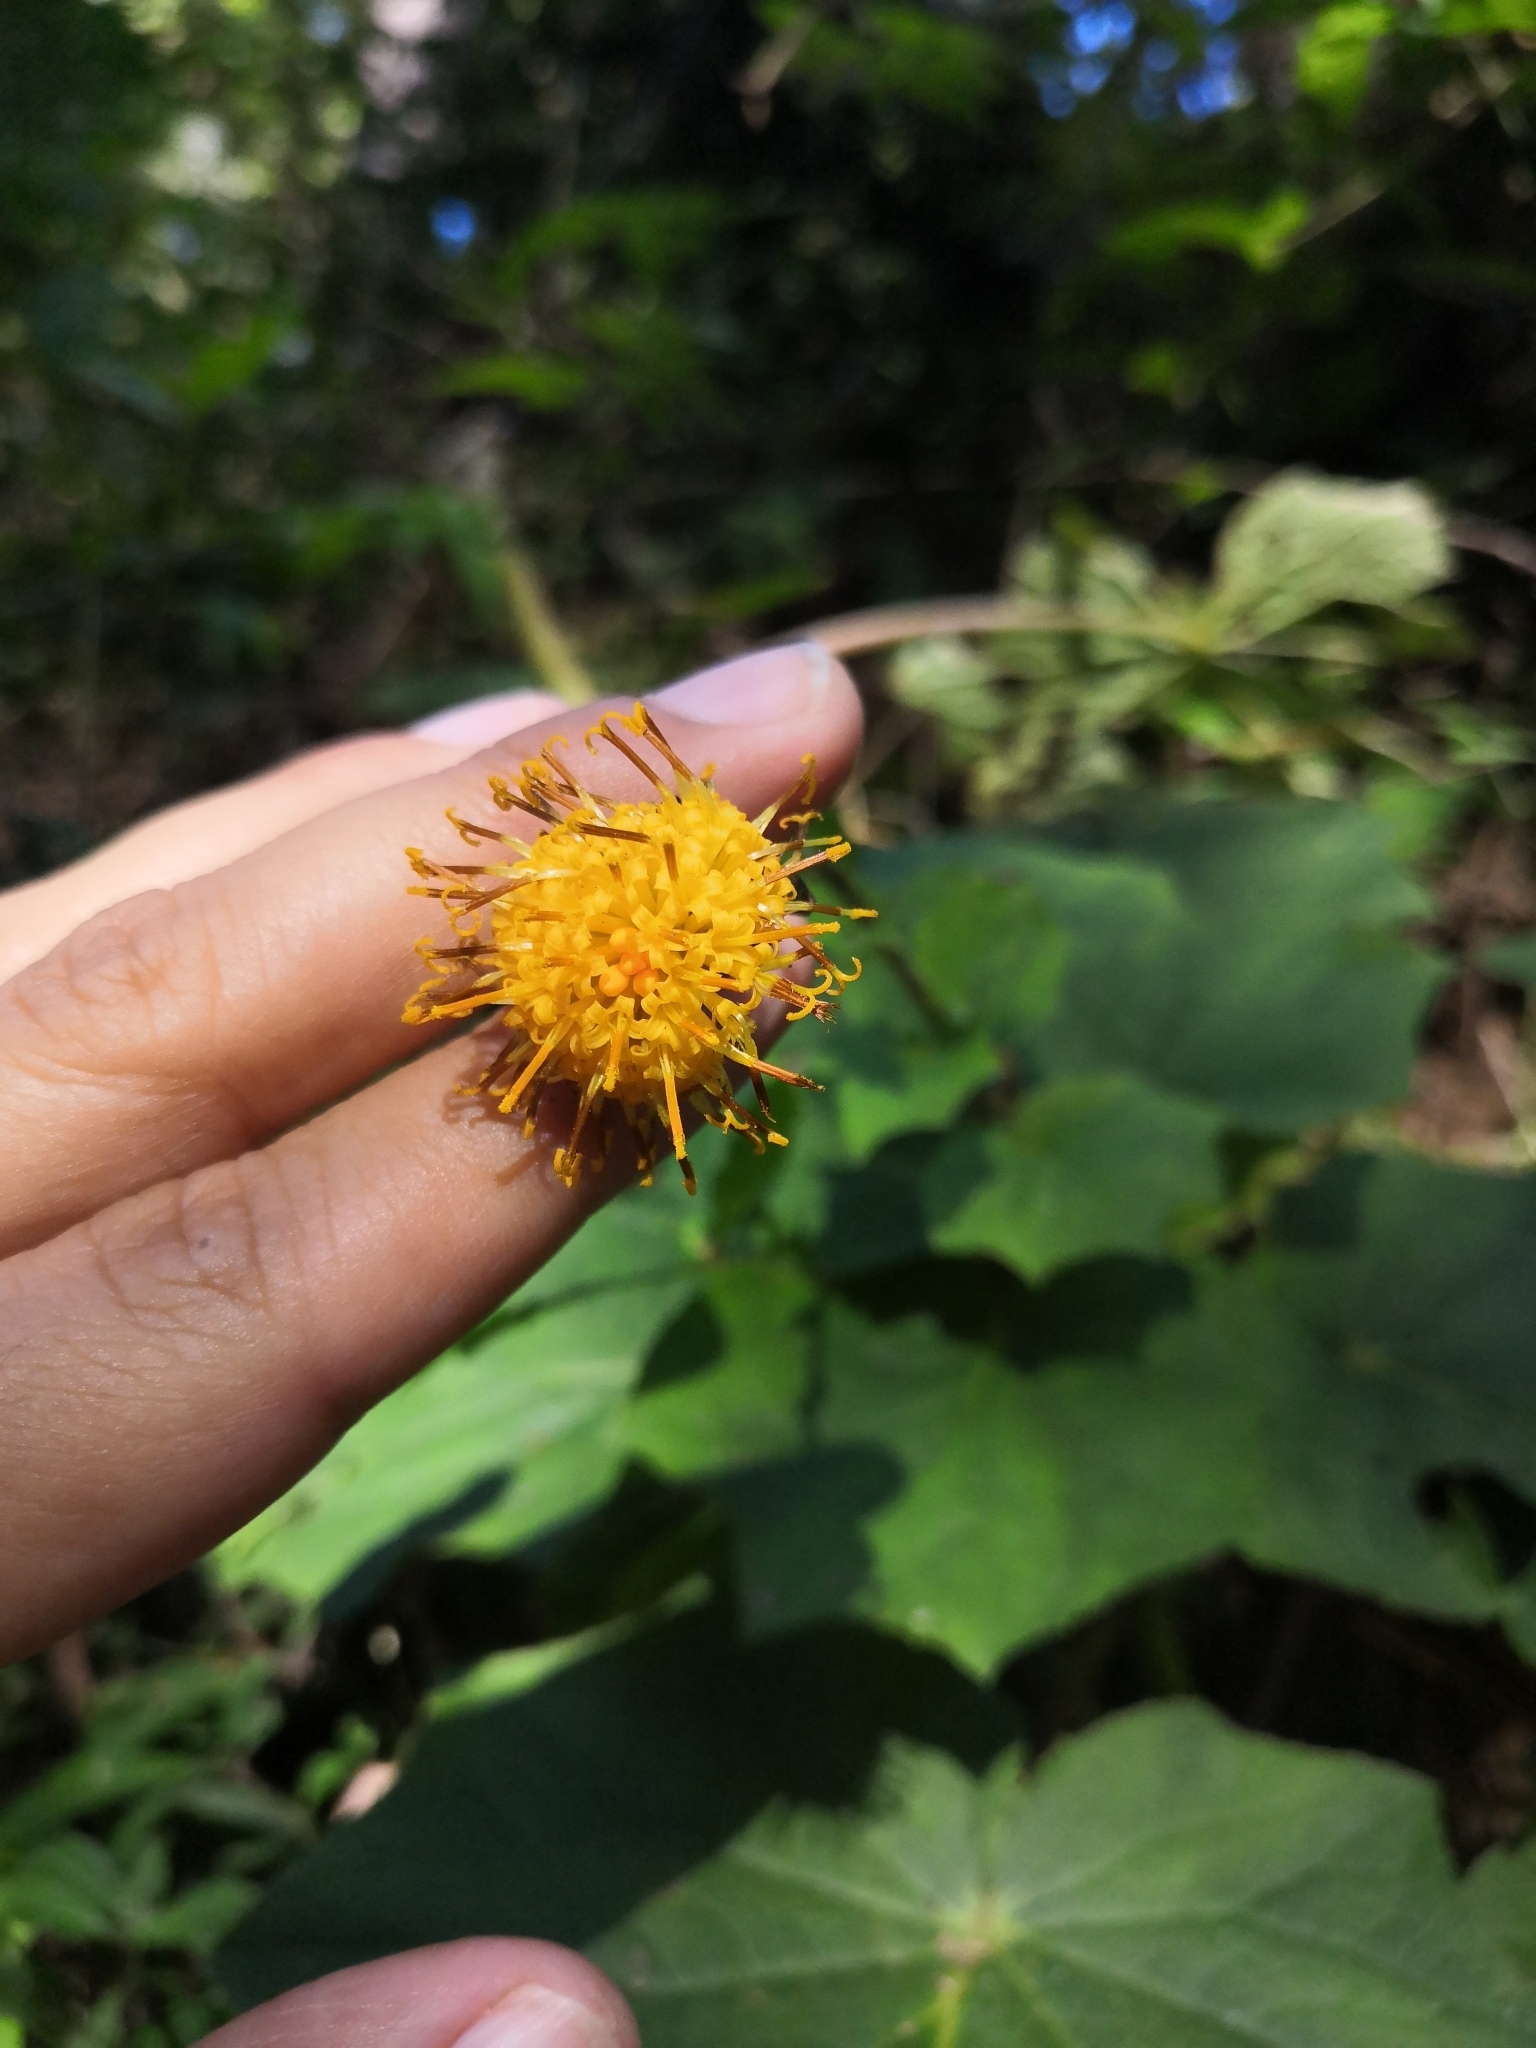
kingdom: Plantae
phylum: Tracheophyta
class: Magnoliopsida
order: Asterales
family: Asteraceae
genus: Roldana
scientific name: Roldana suffulta
